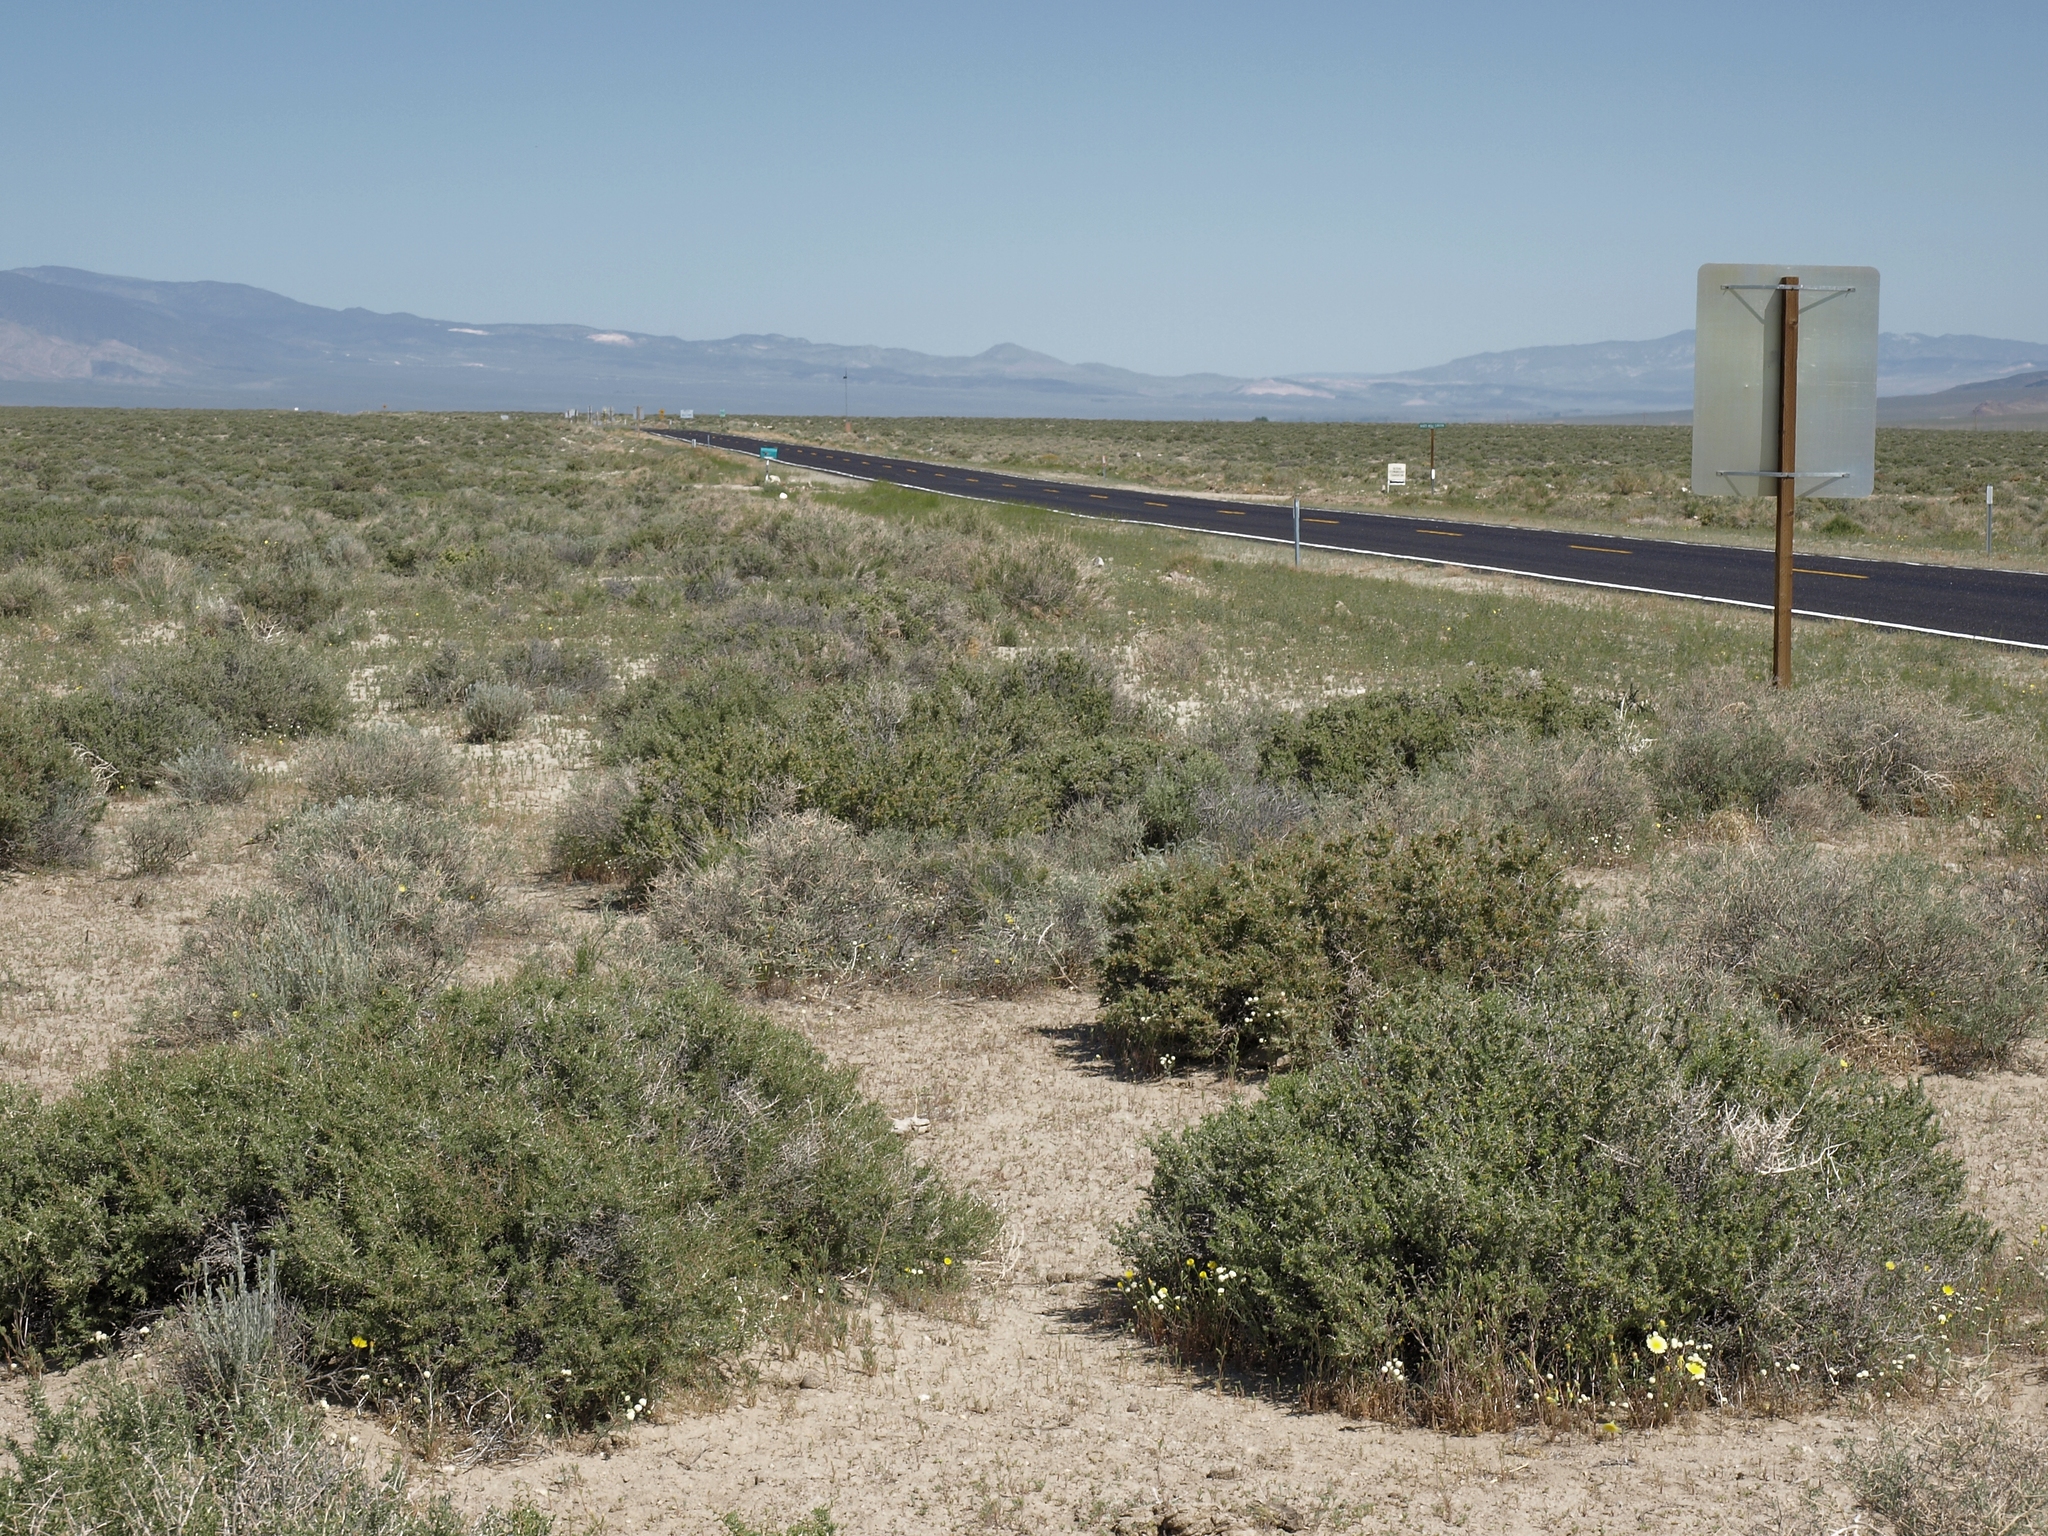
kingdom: Plantae
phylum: Tracheophyta
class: Magnoliopsida
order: Caryophyllales
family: Sarcobataceae
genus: Sarcobatus
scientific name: Sarcobatus baileyi
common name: Bailey greasewood
